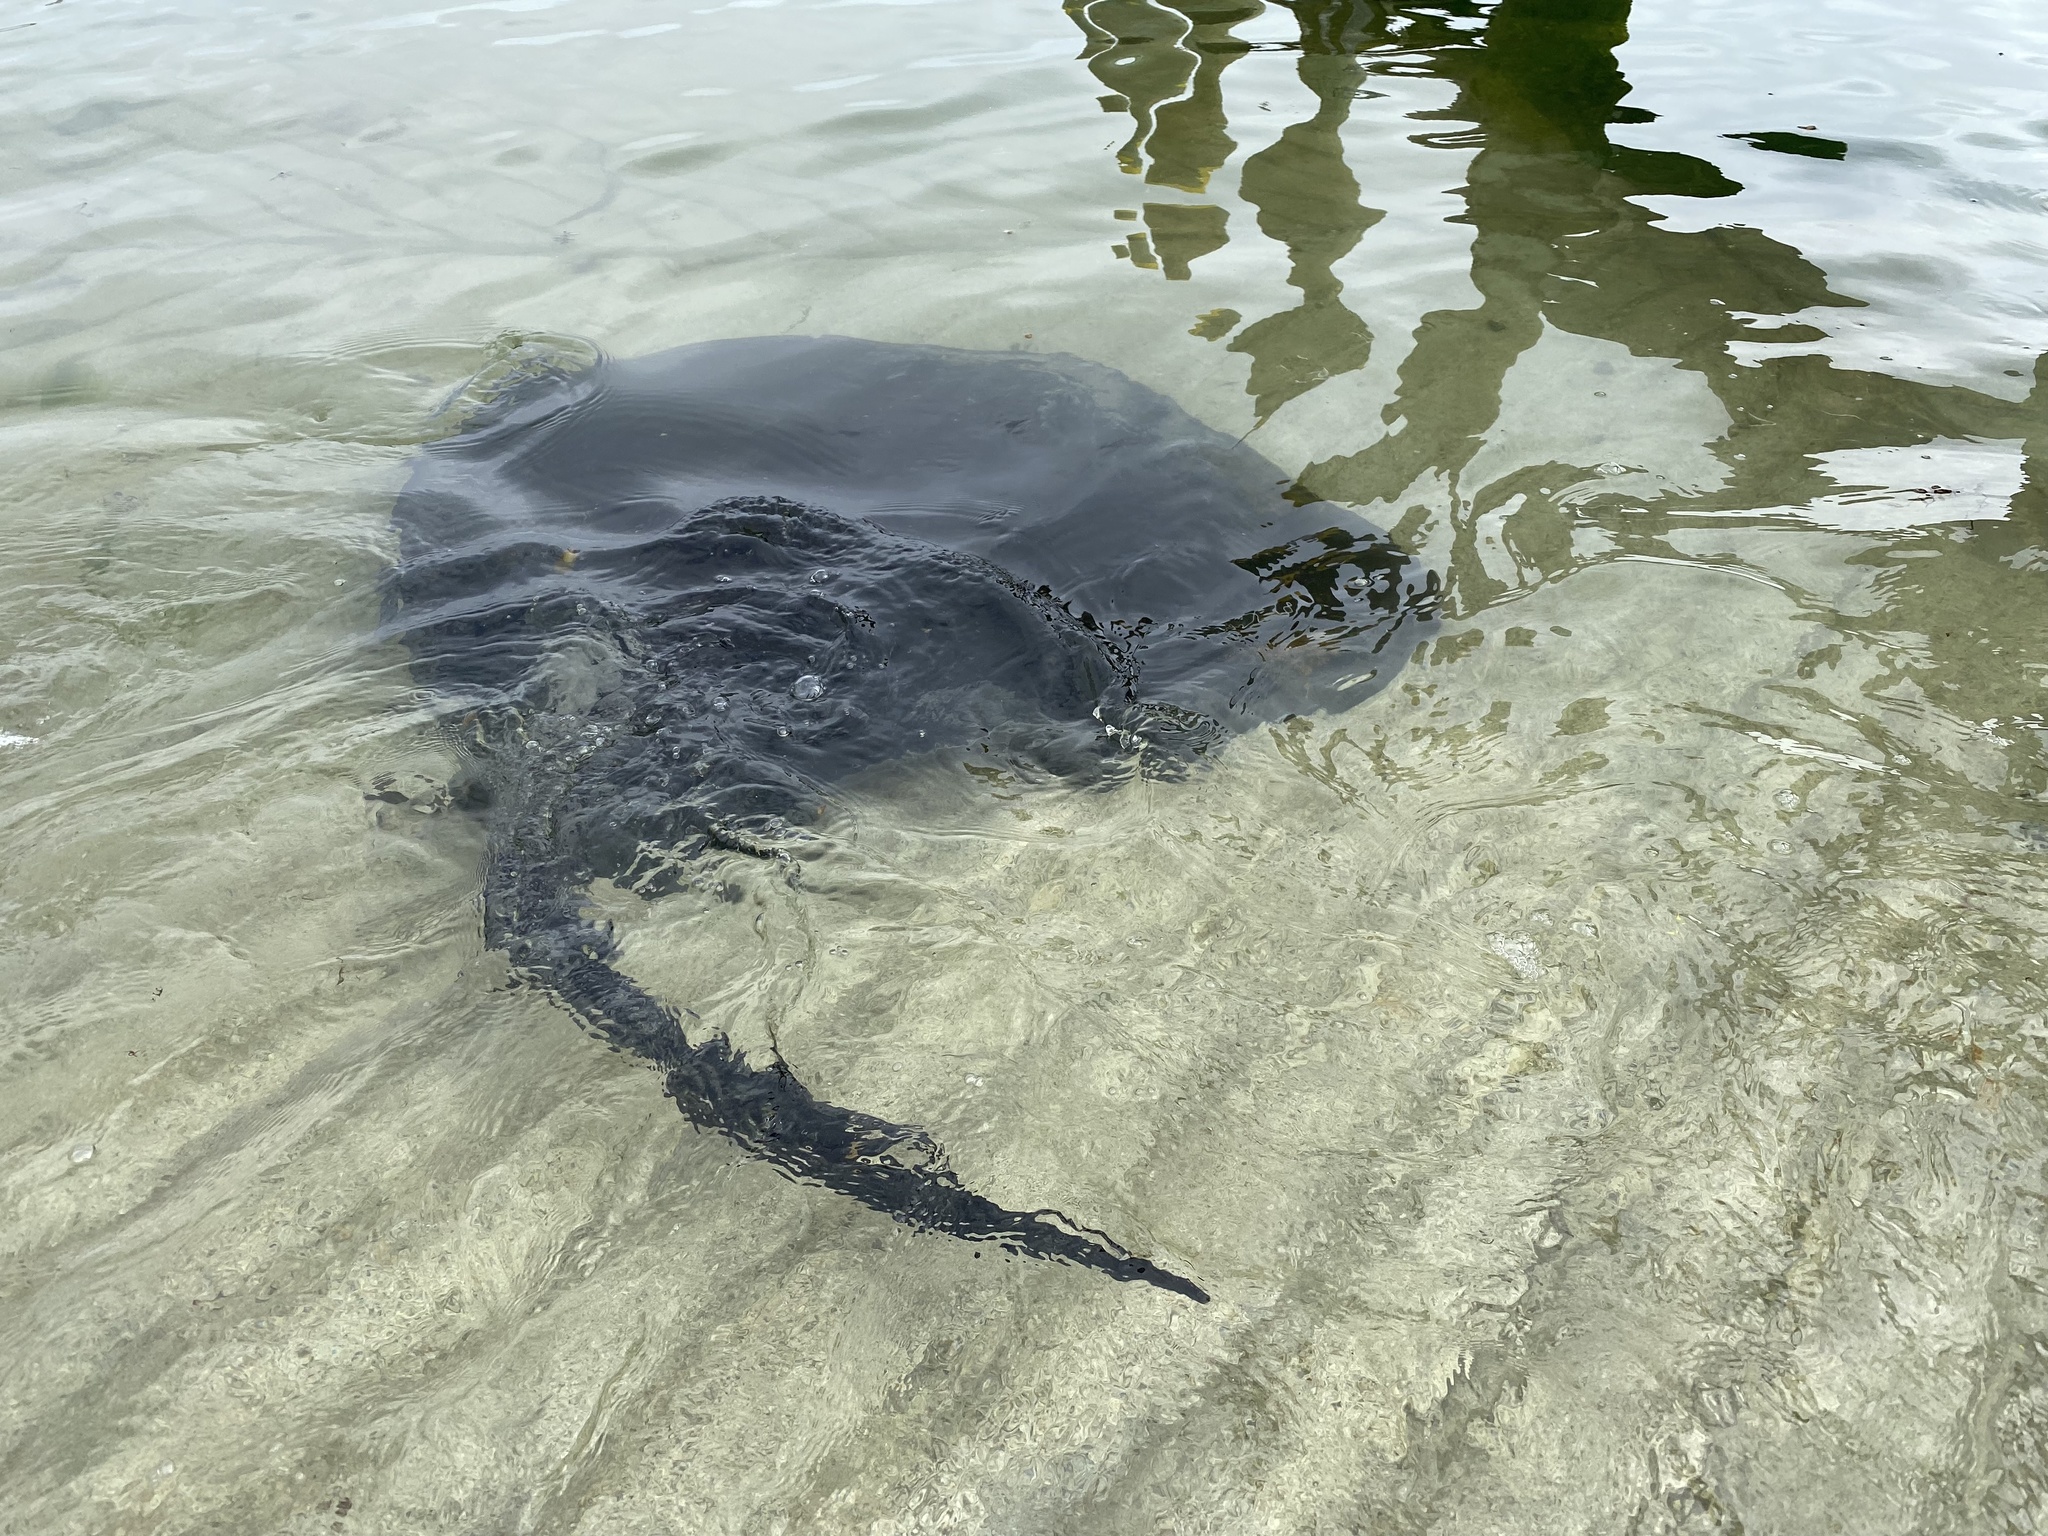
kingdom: Animalia
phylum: Chordata
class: Elasmobranchii
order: Myliobatiformes
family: Dasyatidae
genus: Bathytoshia
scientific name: Bathytoshia brevicaudata
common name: Short-tail stingray
